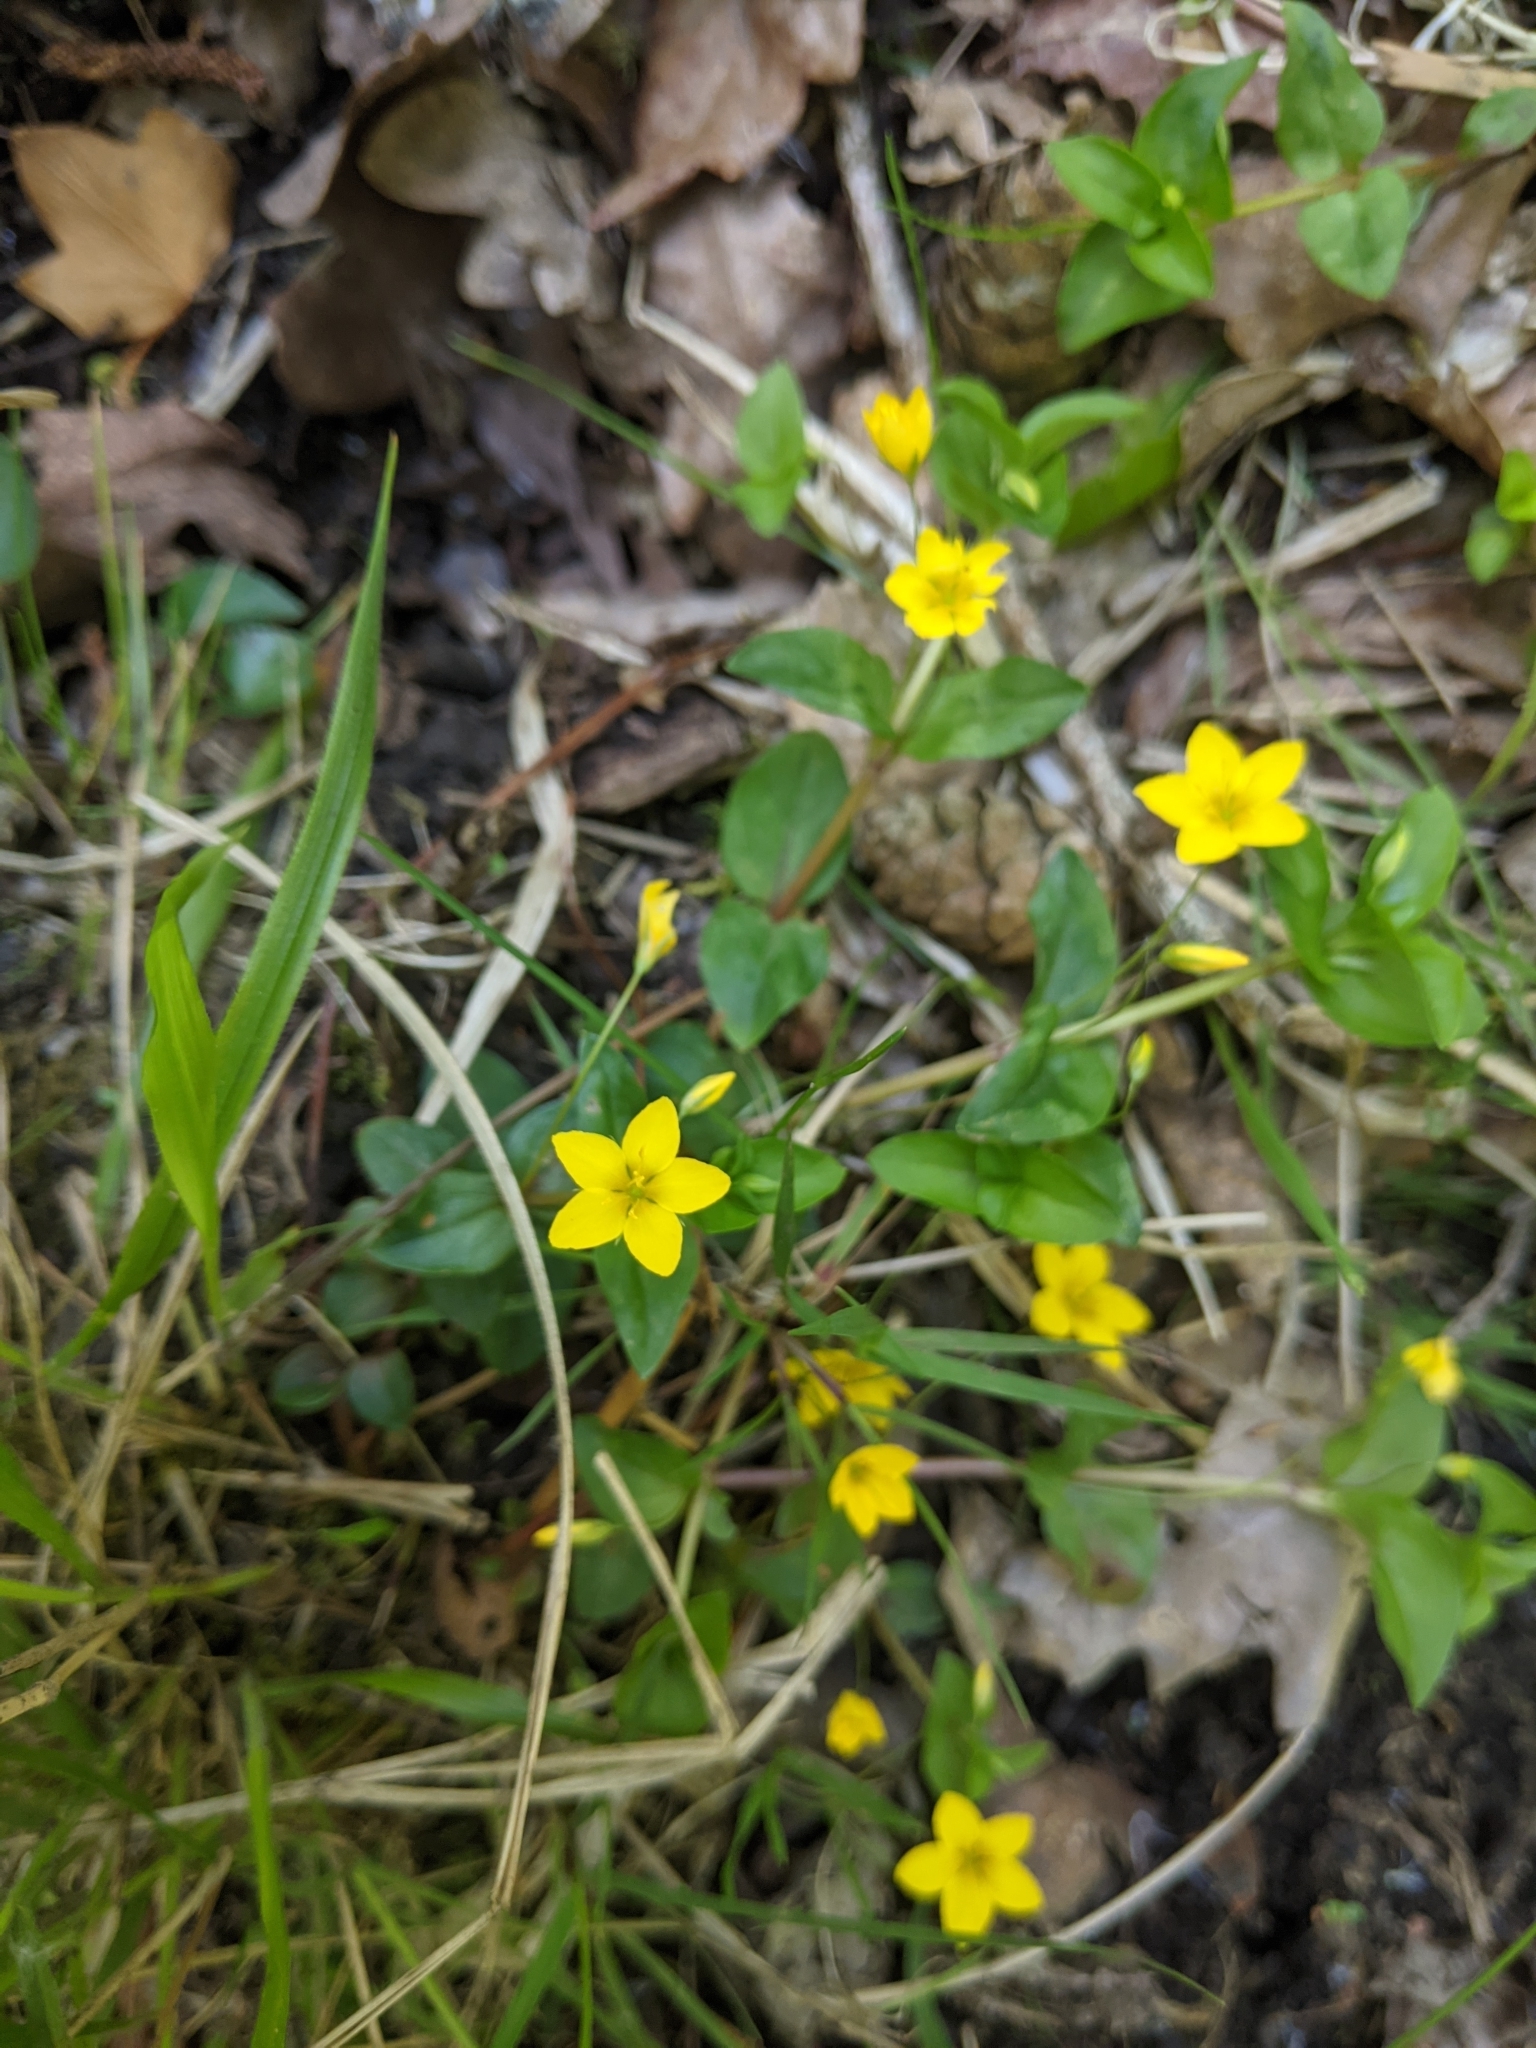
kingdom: Plantae
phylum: Tracheophyta
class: Magnoliopsida
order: Ericales
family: Primulaceae
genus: Lysimachia
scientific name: Lysimachia nemorum
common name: Yellow pimpernel
